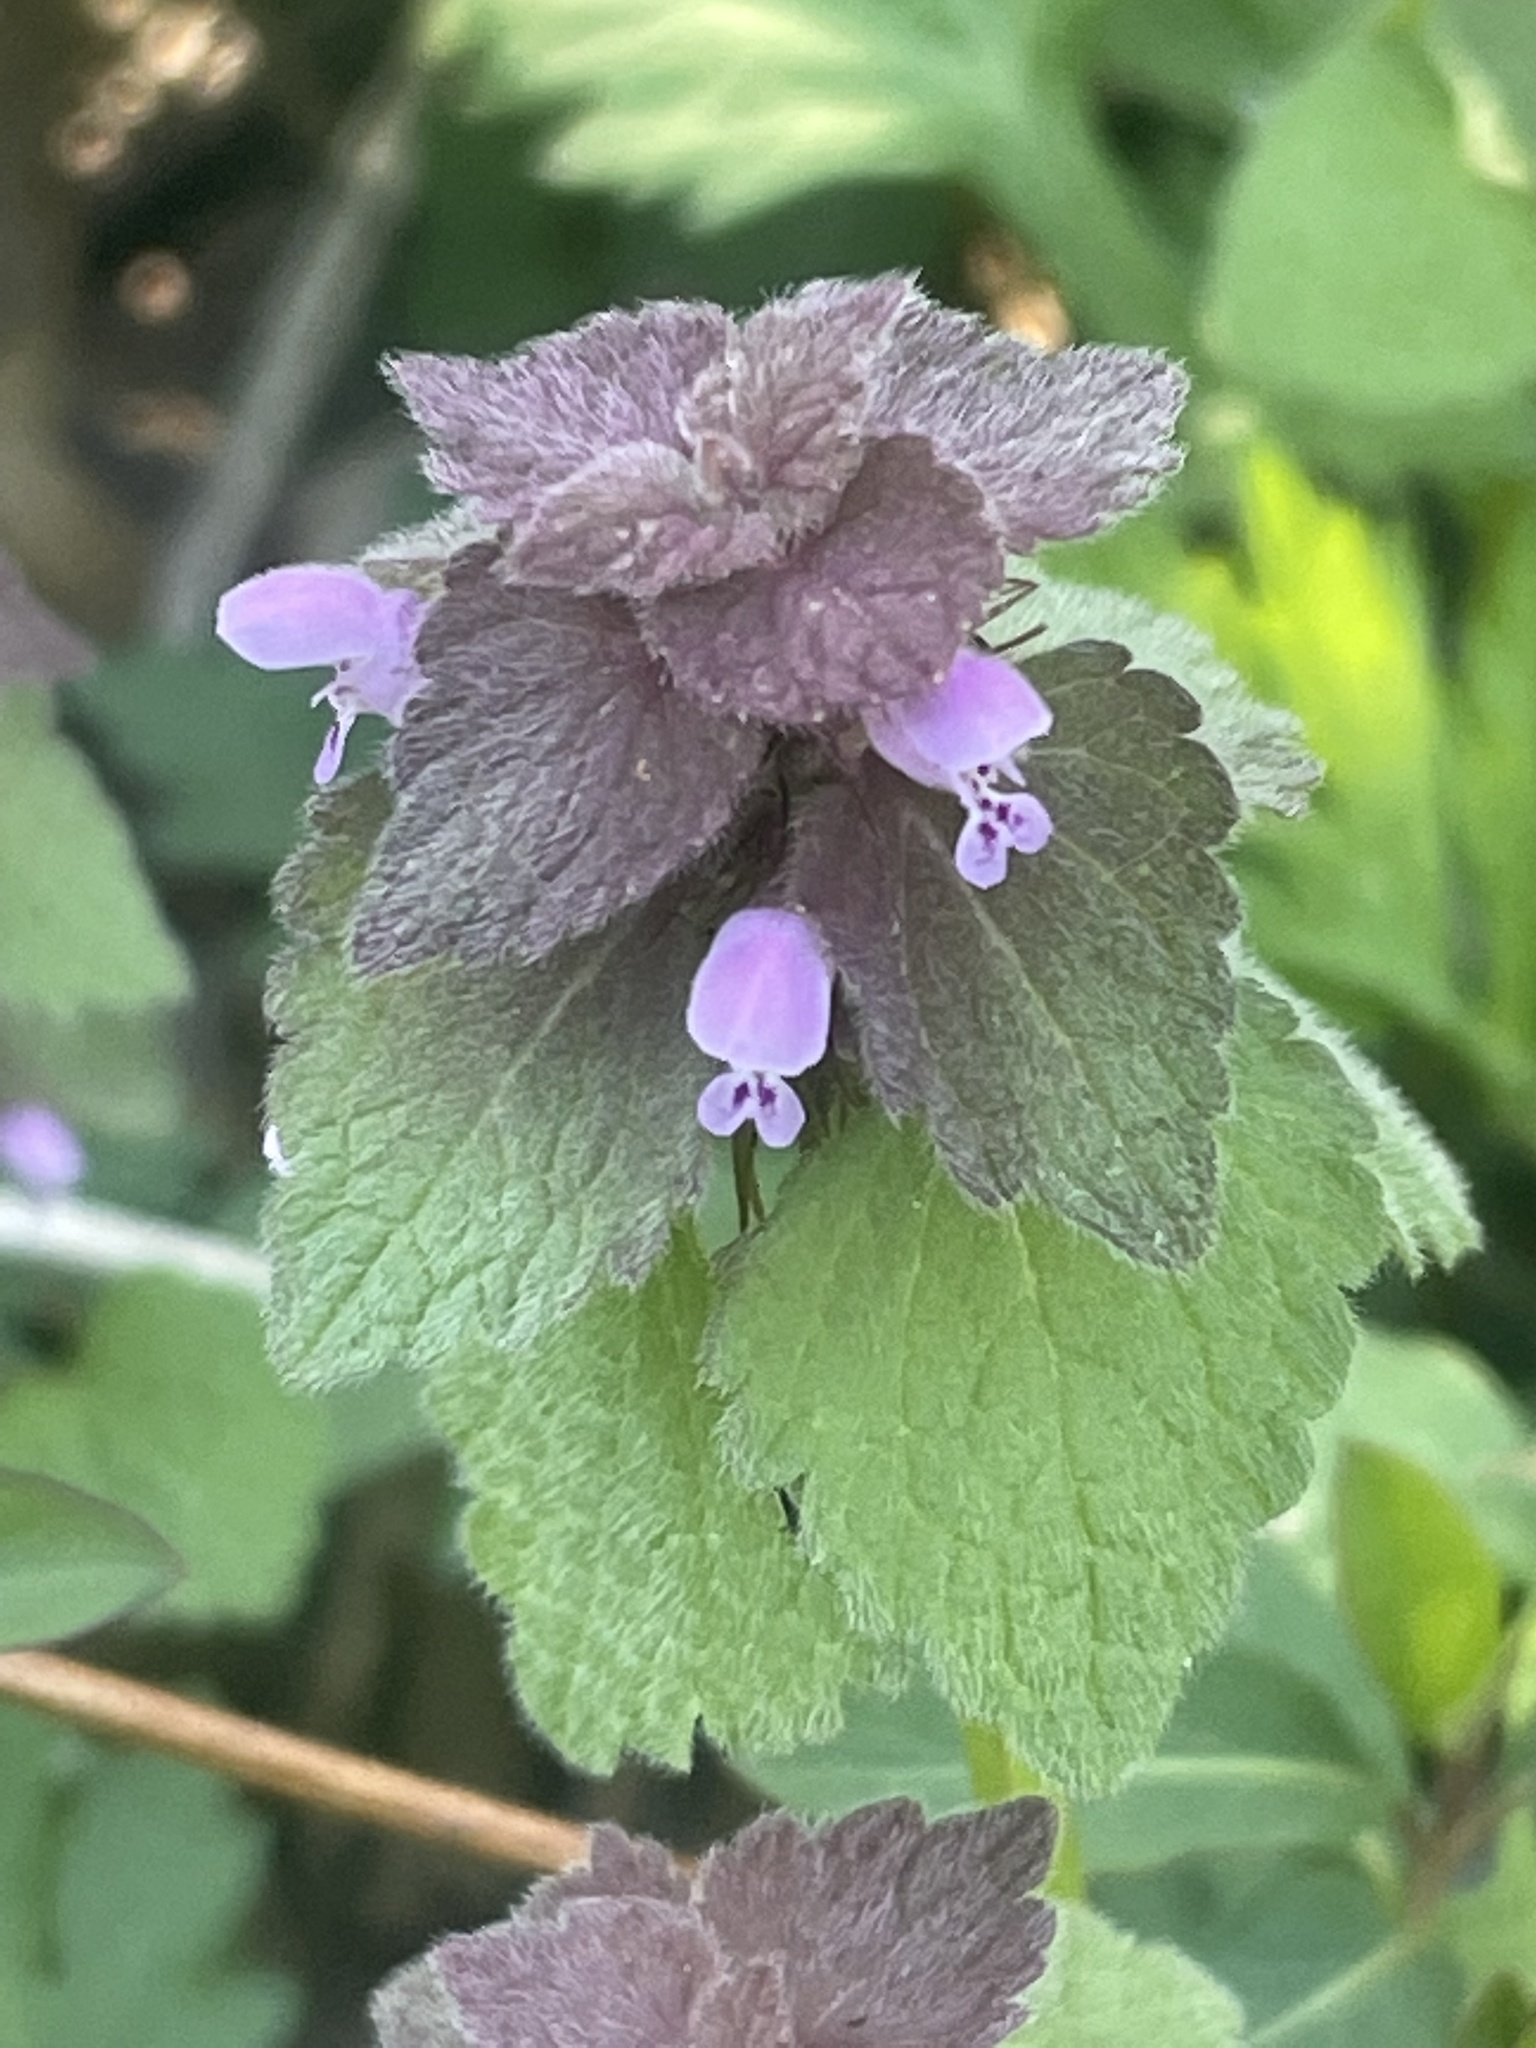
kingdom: Plantae
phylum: Tracheophyta
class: Magnoliopsida
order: Lamiales
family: Lamiaceae
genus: Lamium
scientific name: Lamium purpureum
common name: Red dead-nettle
